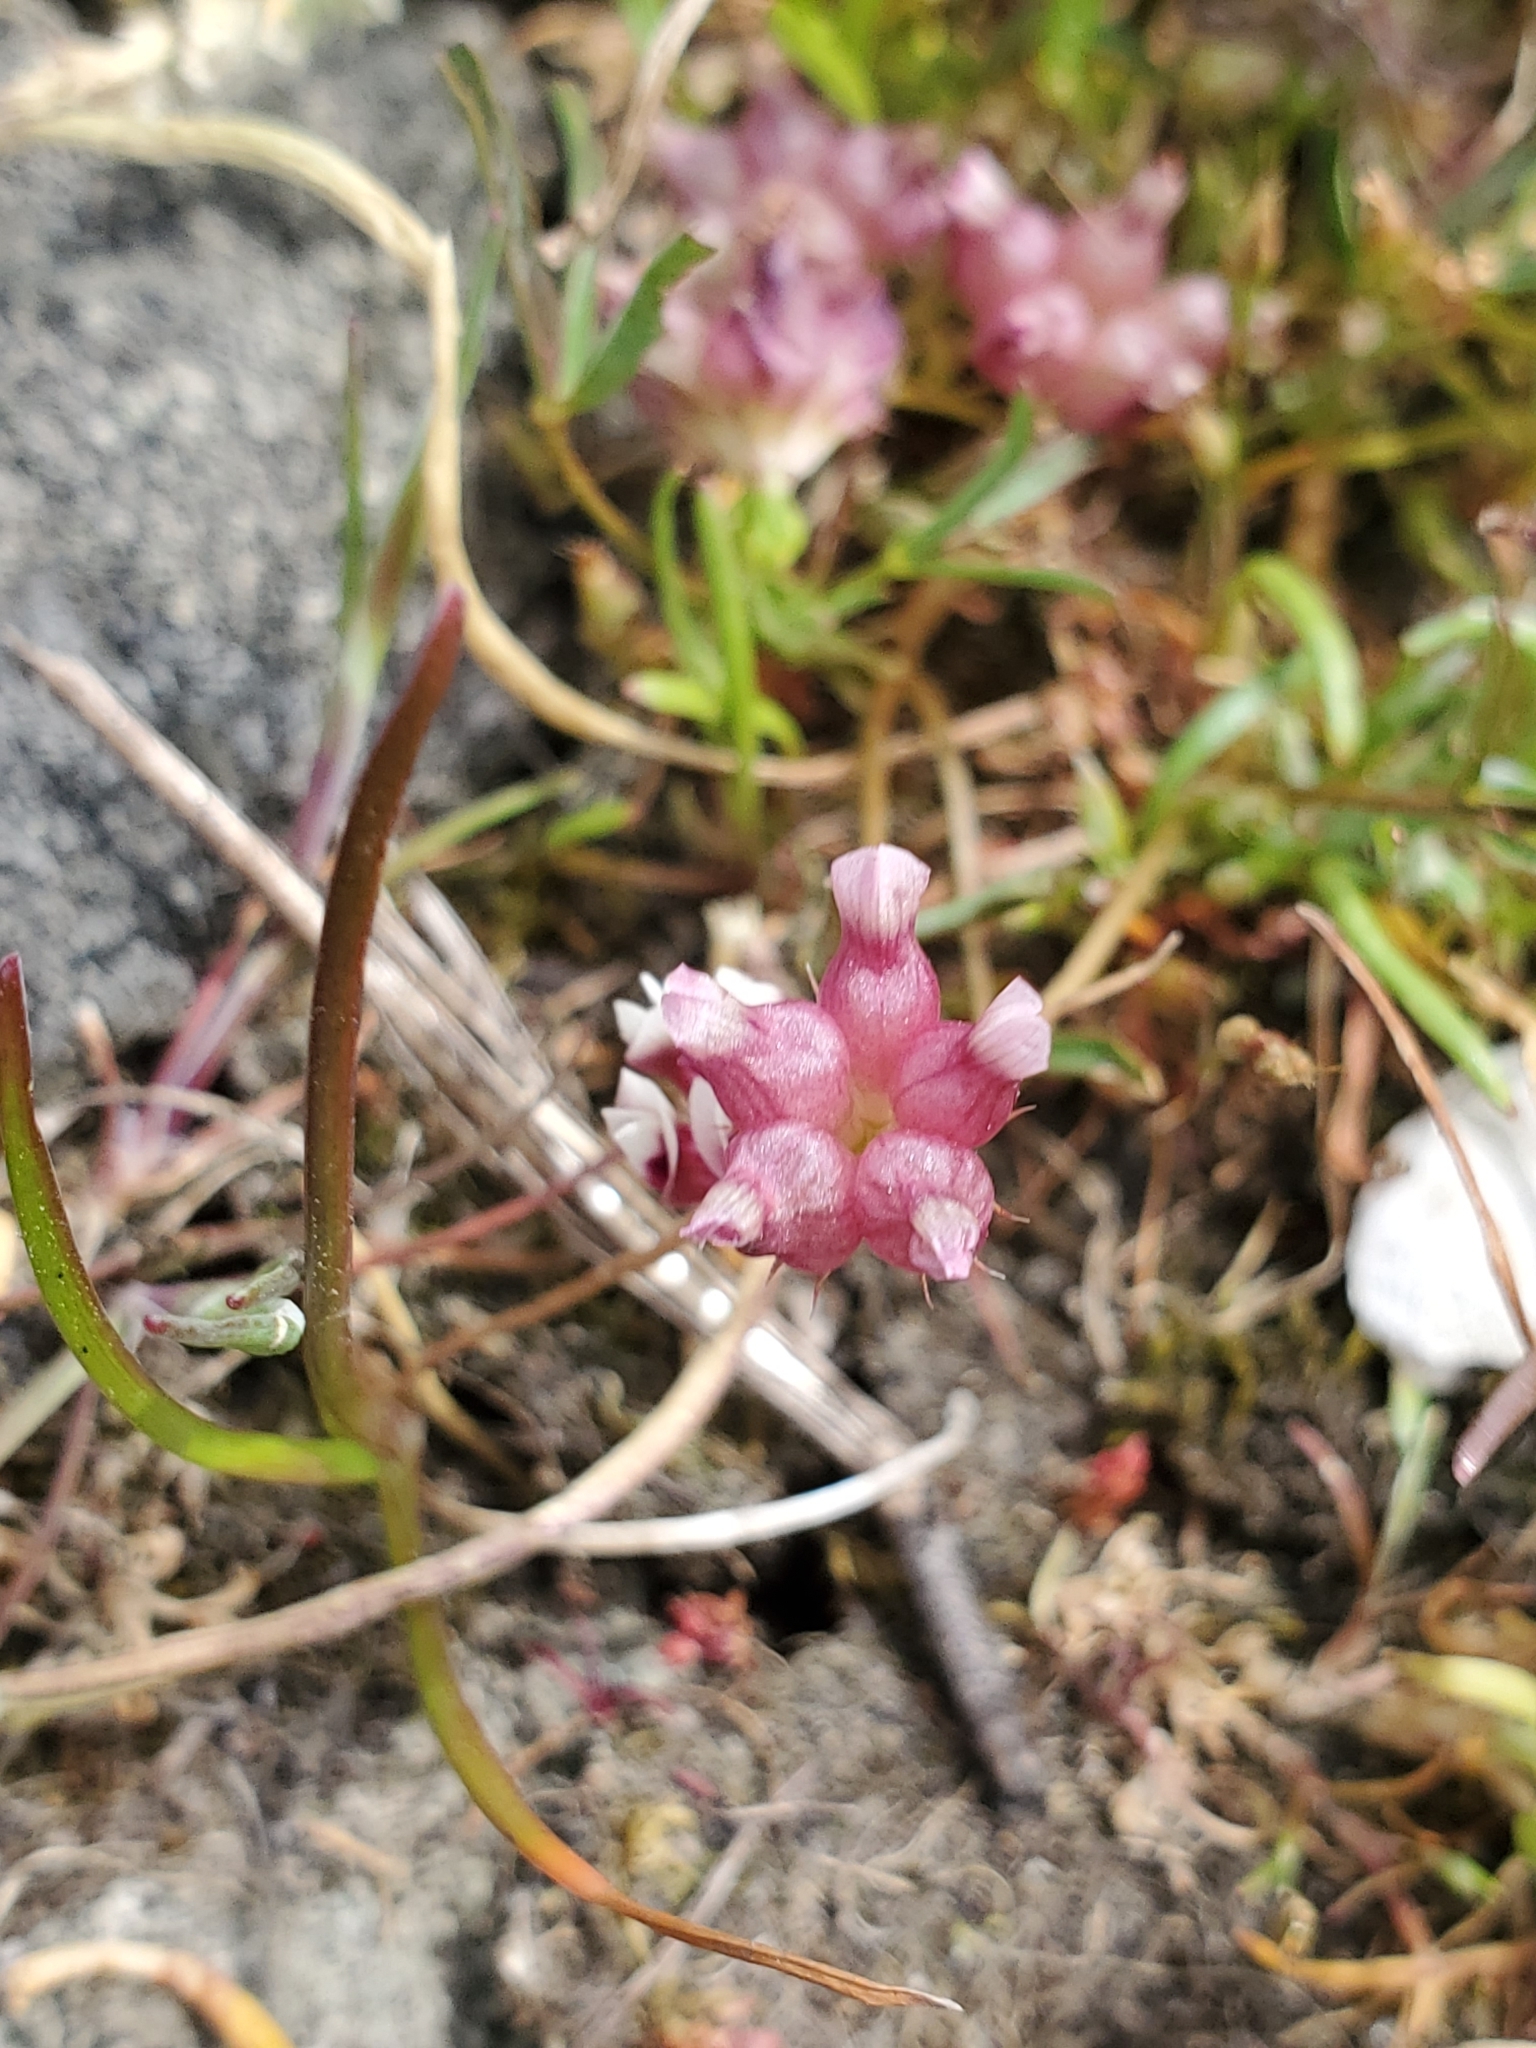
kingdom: Plantae
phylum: Tracheophyta
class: Magnoliopsida
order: Fabales
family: Fabaceae
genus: Trifolium
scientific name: Trifolium depauperatum
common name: Poverty clover
